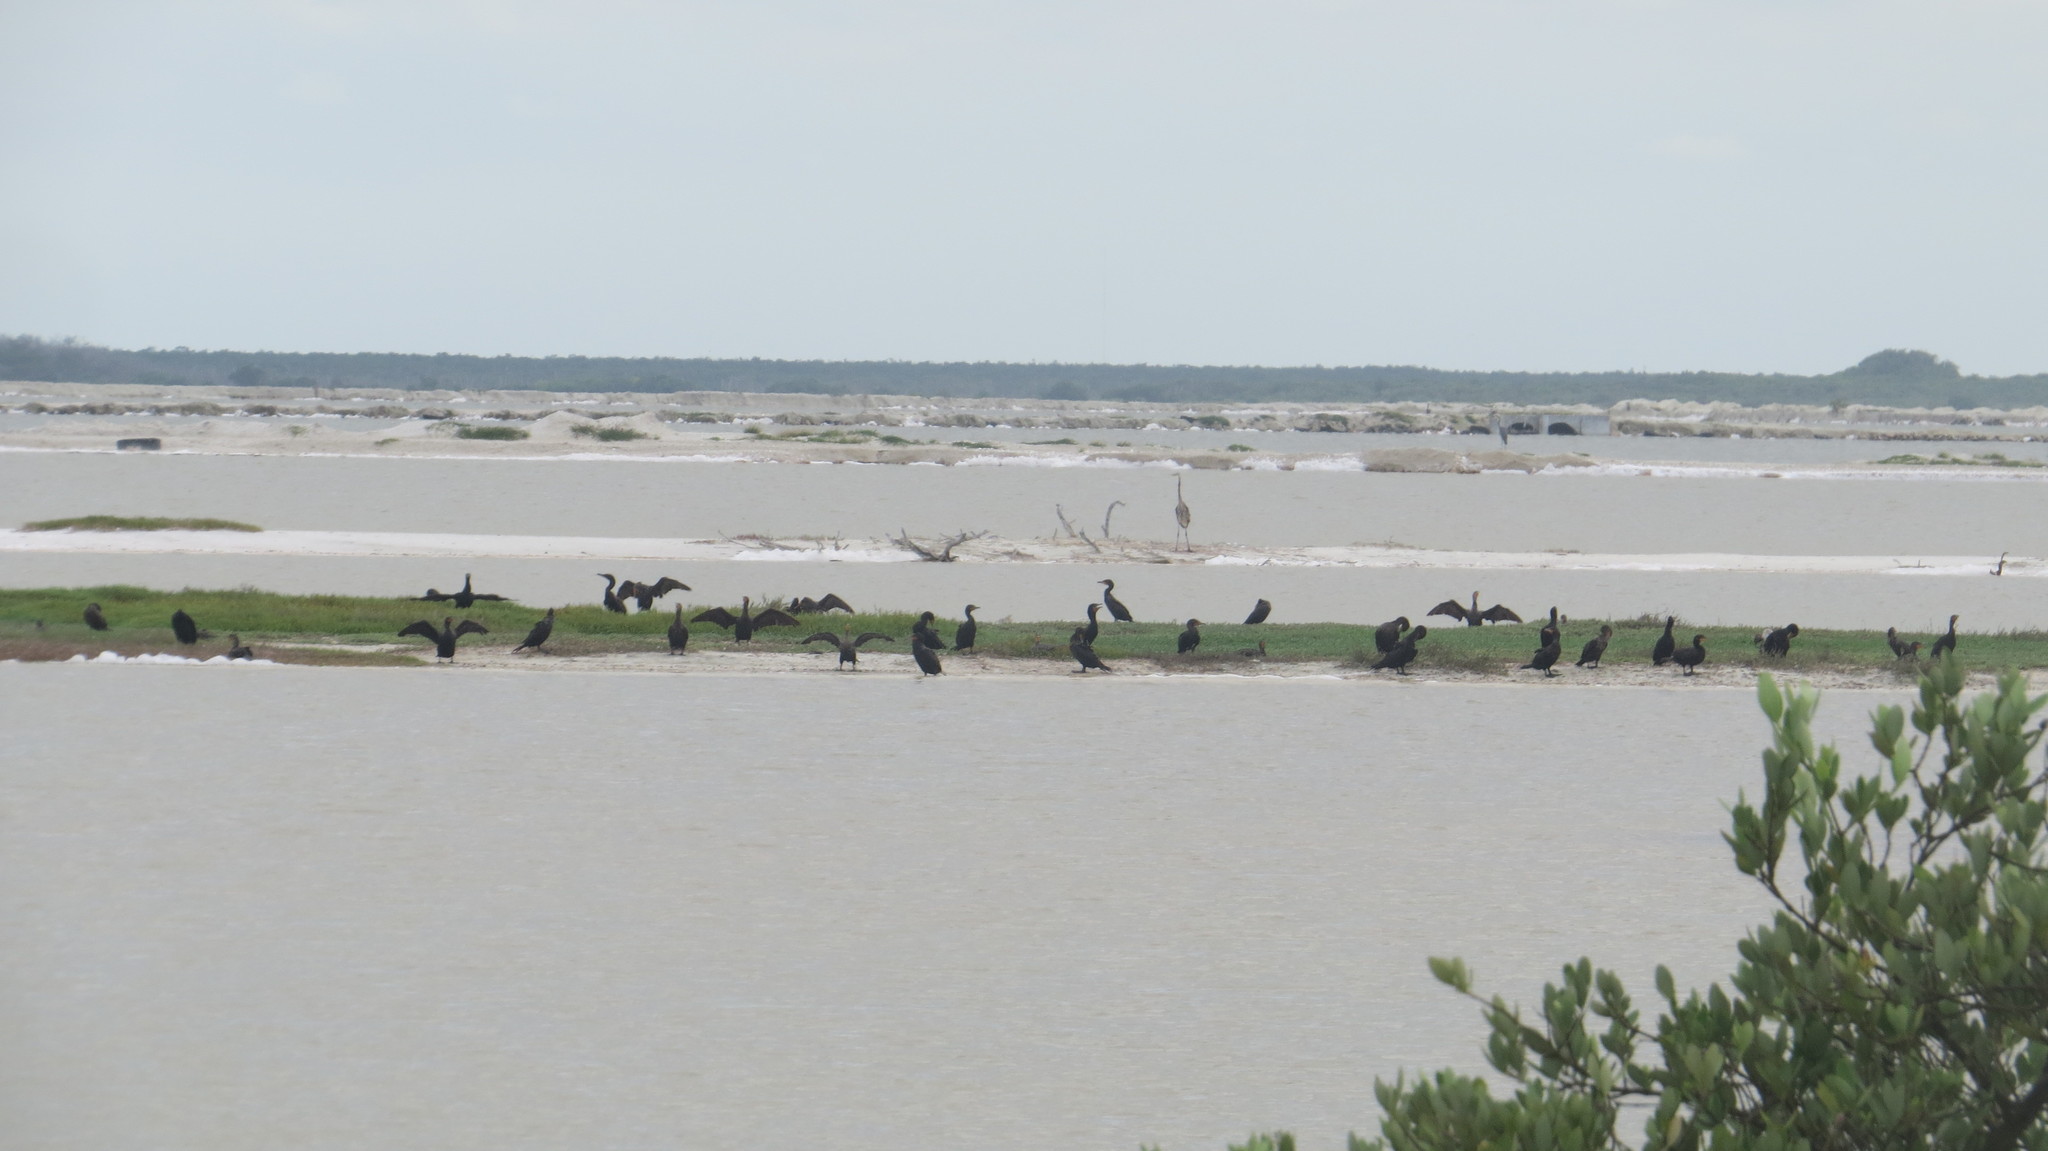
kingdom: Animalia
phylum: Chordata
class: Aves
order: Pelecaniformes
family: Ardeidae
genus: Ardea
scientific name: Ardea herodias
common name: Great blue heron
